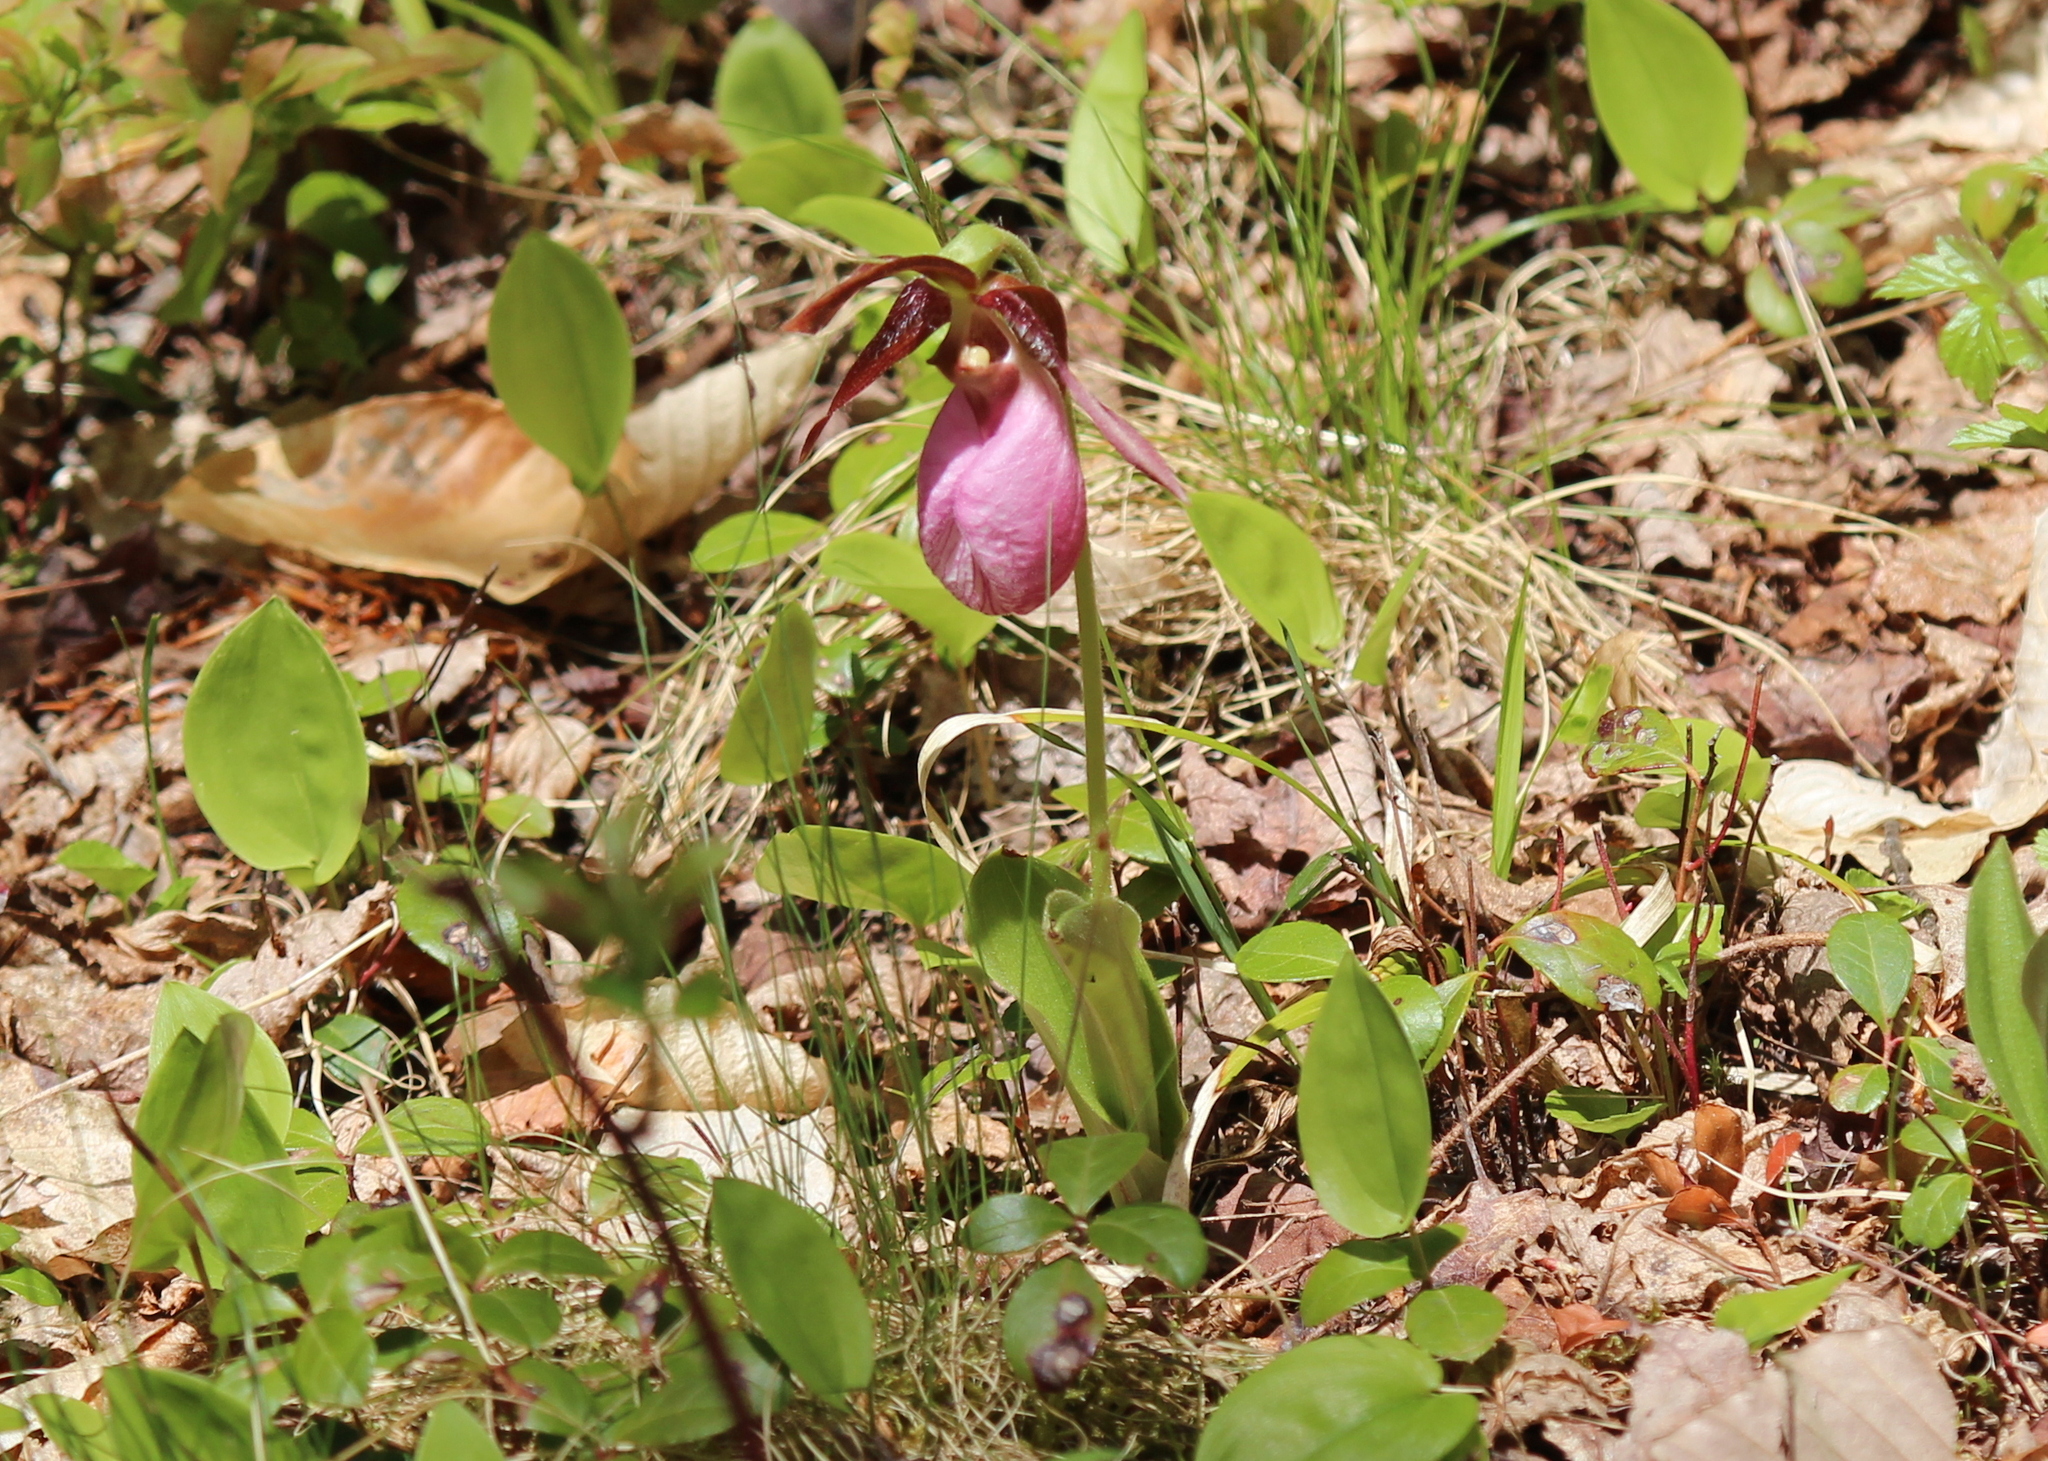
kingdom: Plantae
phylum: Tracheophyta
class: Liliopsida
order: Asparagales
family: Orchidaceae
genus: Cypripedium
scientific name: Cypripedium acaule
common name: Pink lady's-slipper
